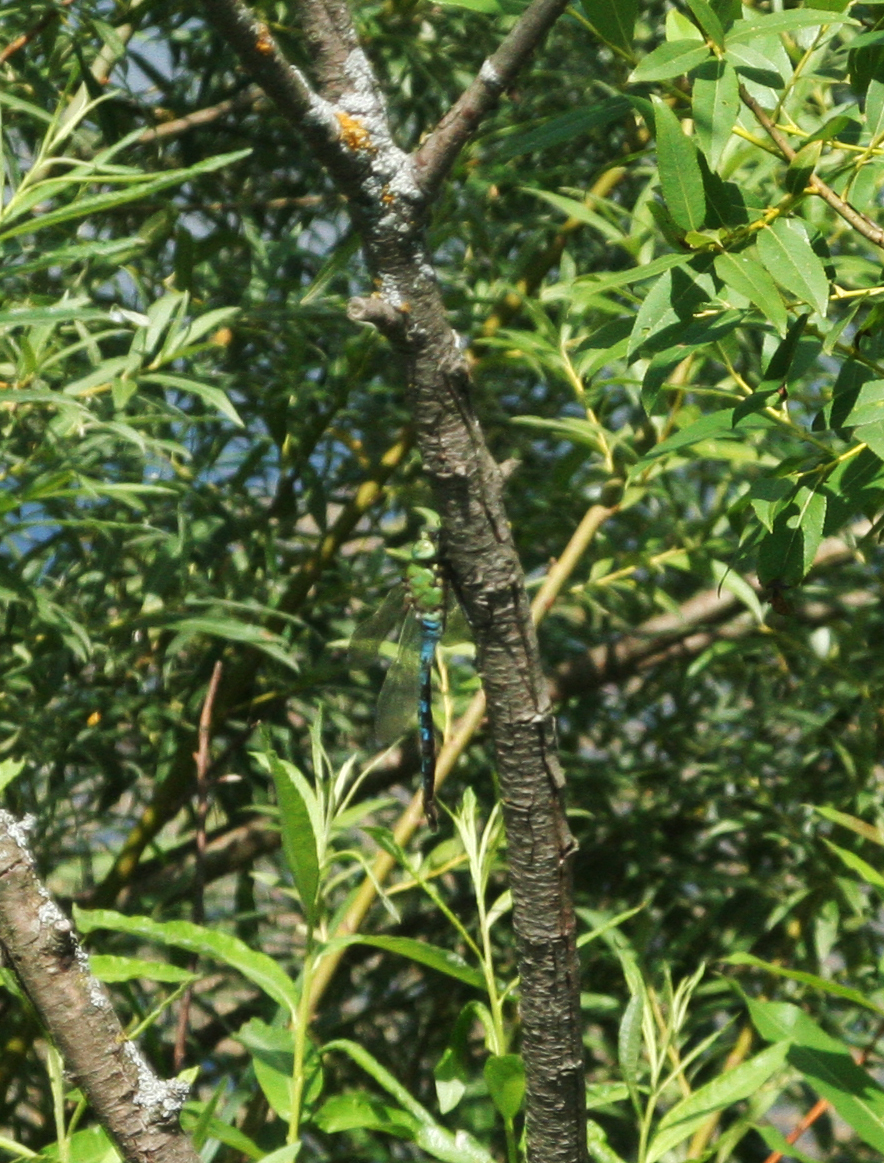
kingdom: Animalia
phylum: Arthropoda
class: Insecta
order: Odonata
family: Aeshnidae
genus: Anax
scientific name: Anax imperator
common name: Emperor dragonfly
